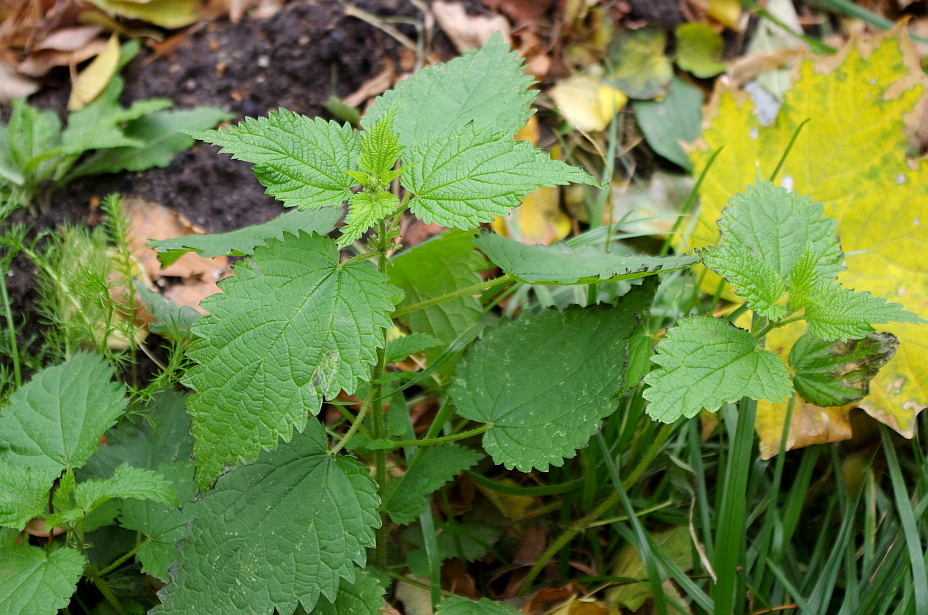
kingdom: Plantae
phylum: Tracheophyta
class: Magnoliopsida
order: Rosales
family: Urticaceae
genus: Urtica
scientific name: Urtica dioica
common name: Common nettle
